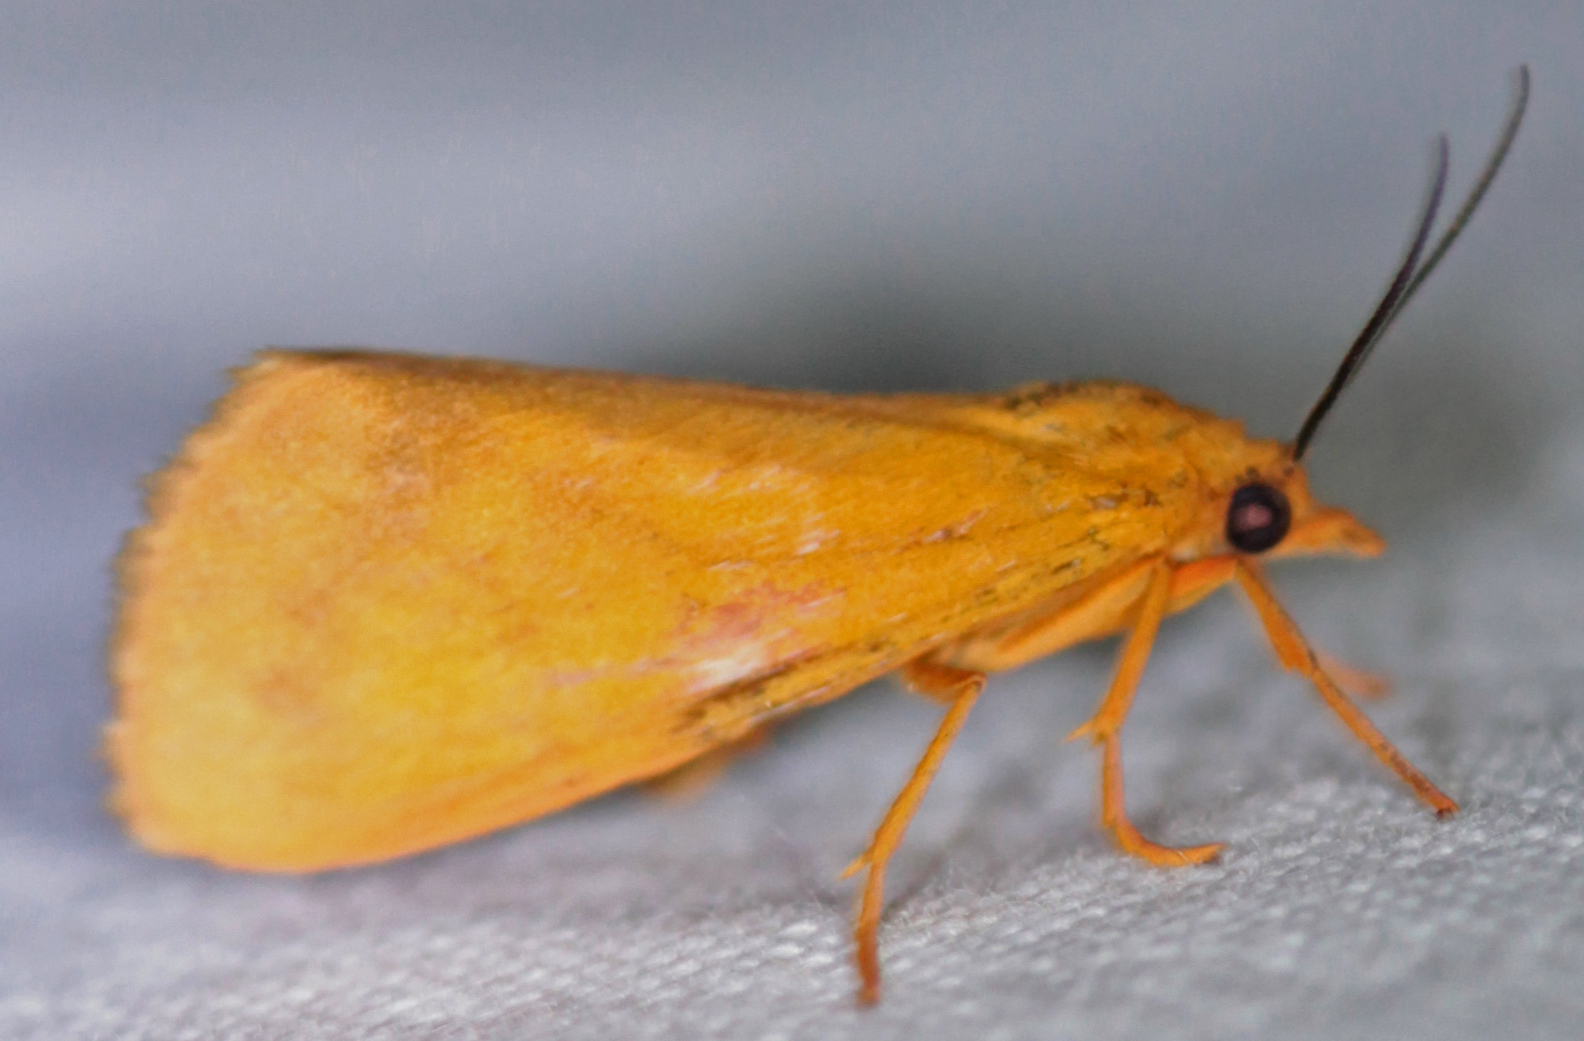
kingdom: Animalia
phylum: Arthropoda
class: Insecta
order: Lepidoptera
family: Erebidae
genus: Virbia
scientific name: Virbia aurantiaca
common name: Orange virbia moth
